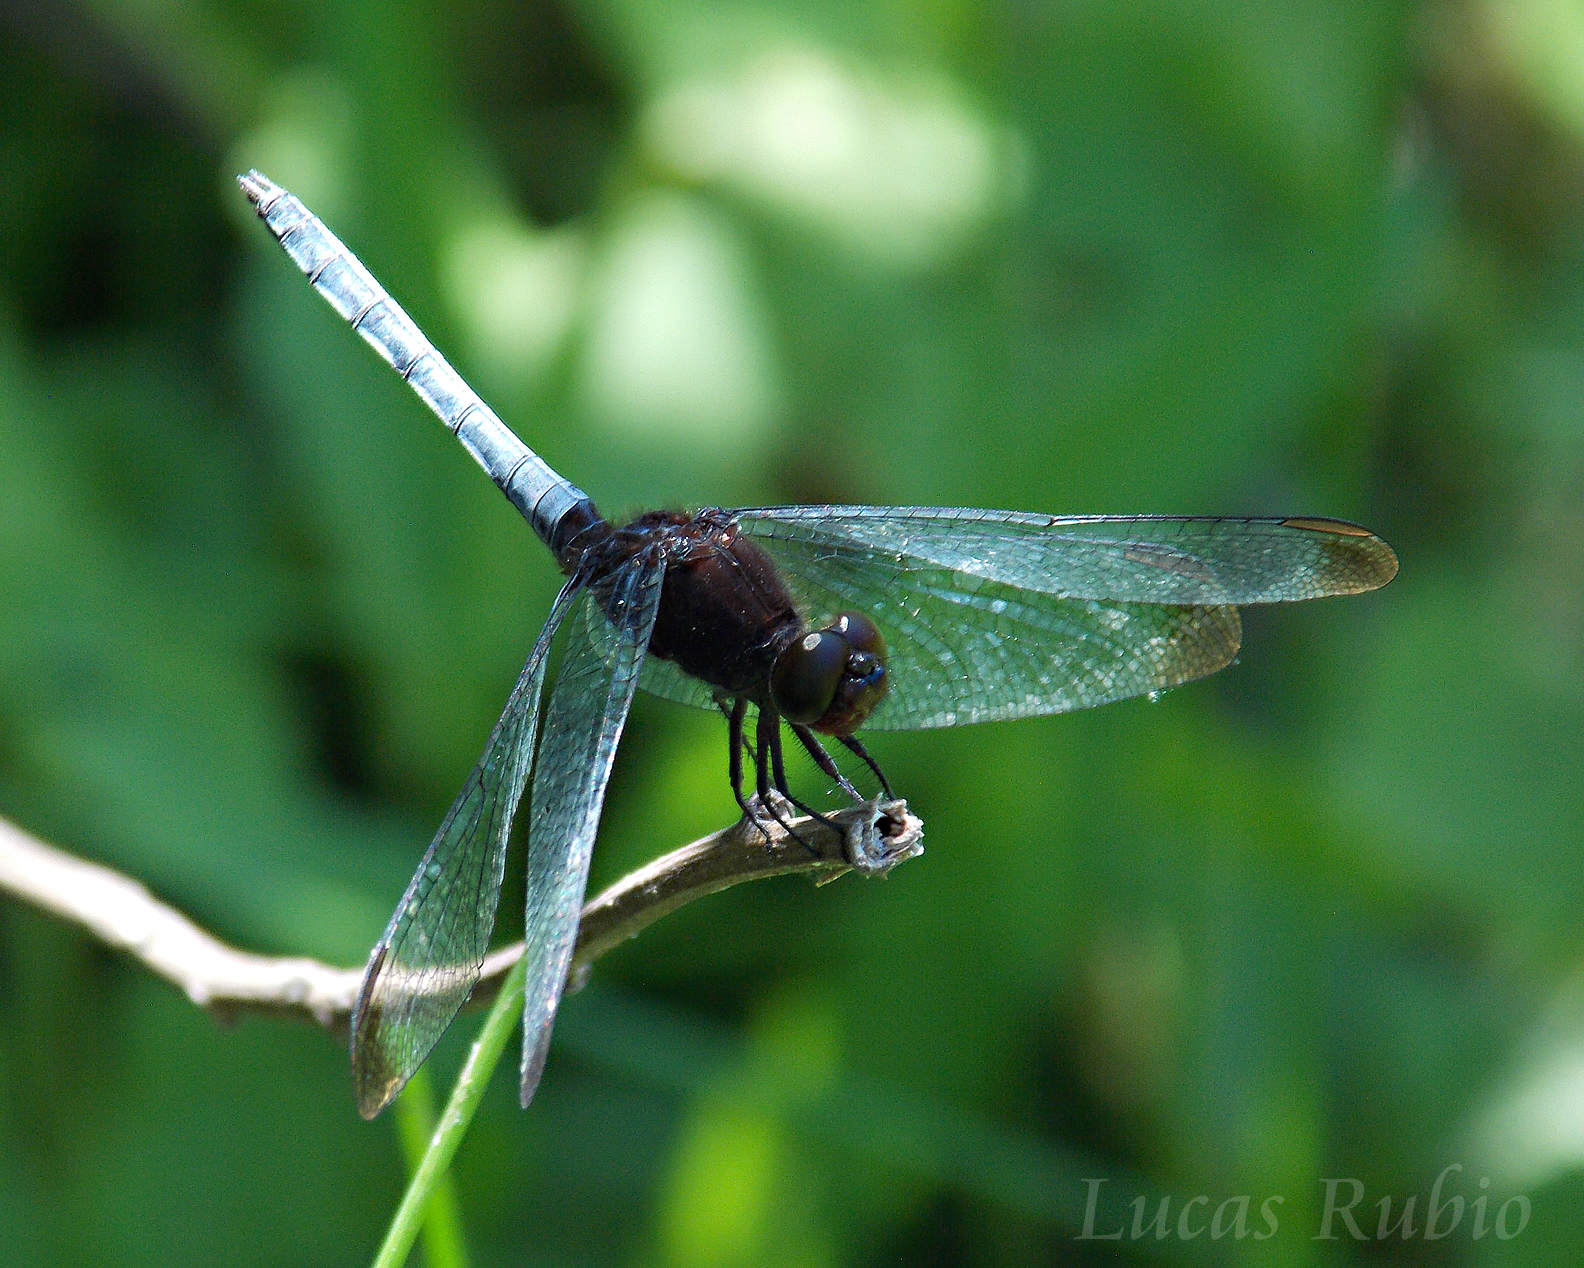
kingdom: Animalia
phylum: Arthropoda
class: Insecta
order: Odonata
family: Libellulidae
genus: Erythrodiplax
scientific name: Erythrodiplax atroterminata
